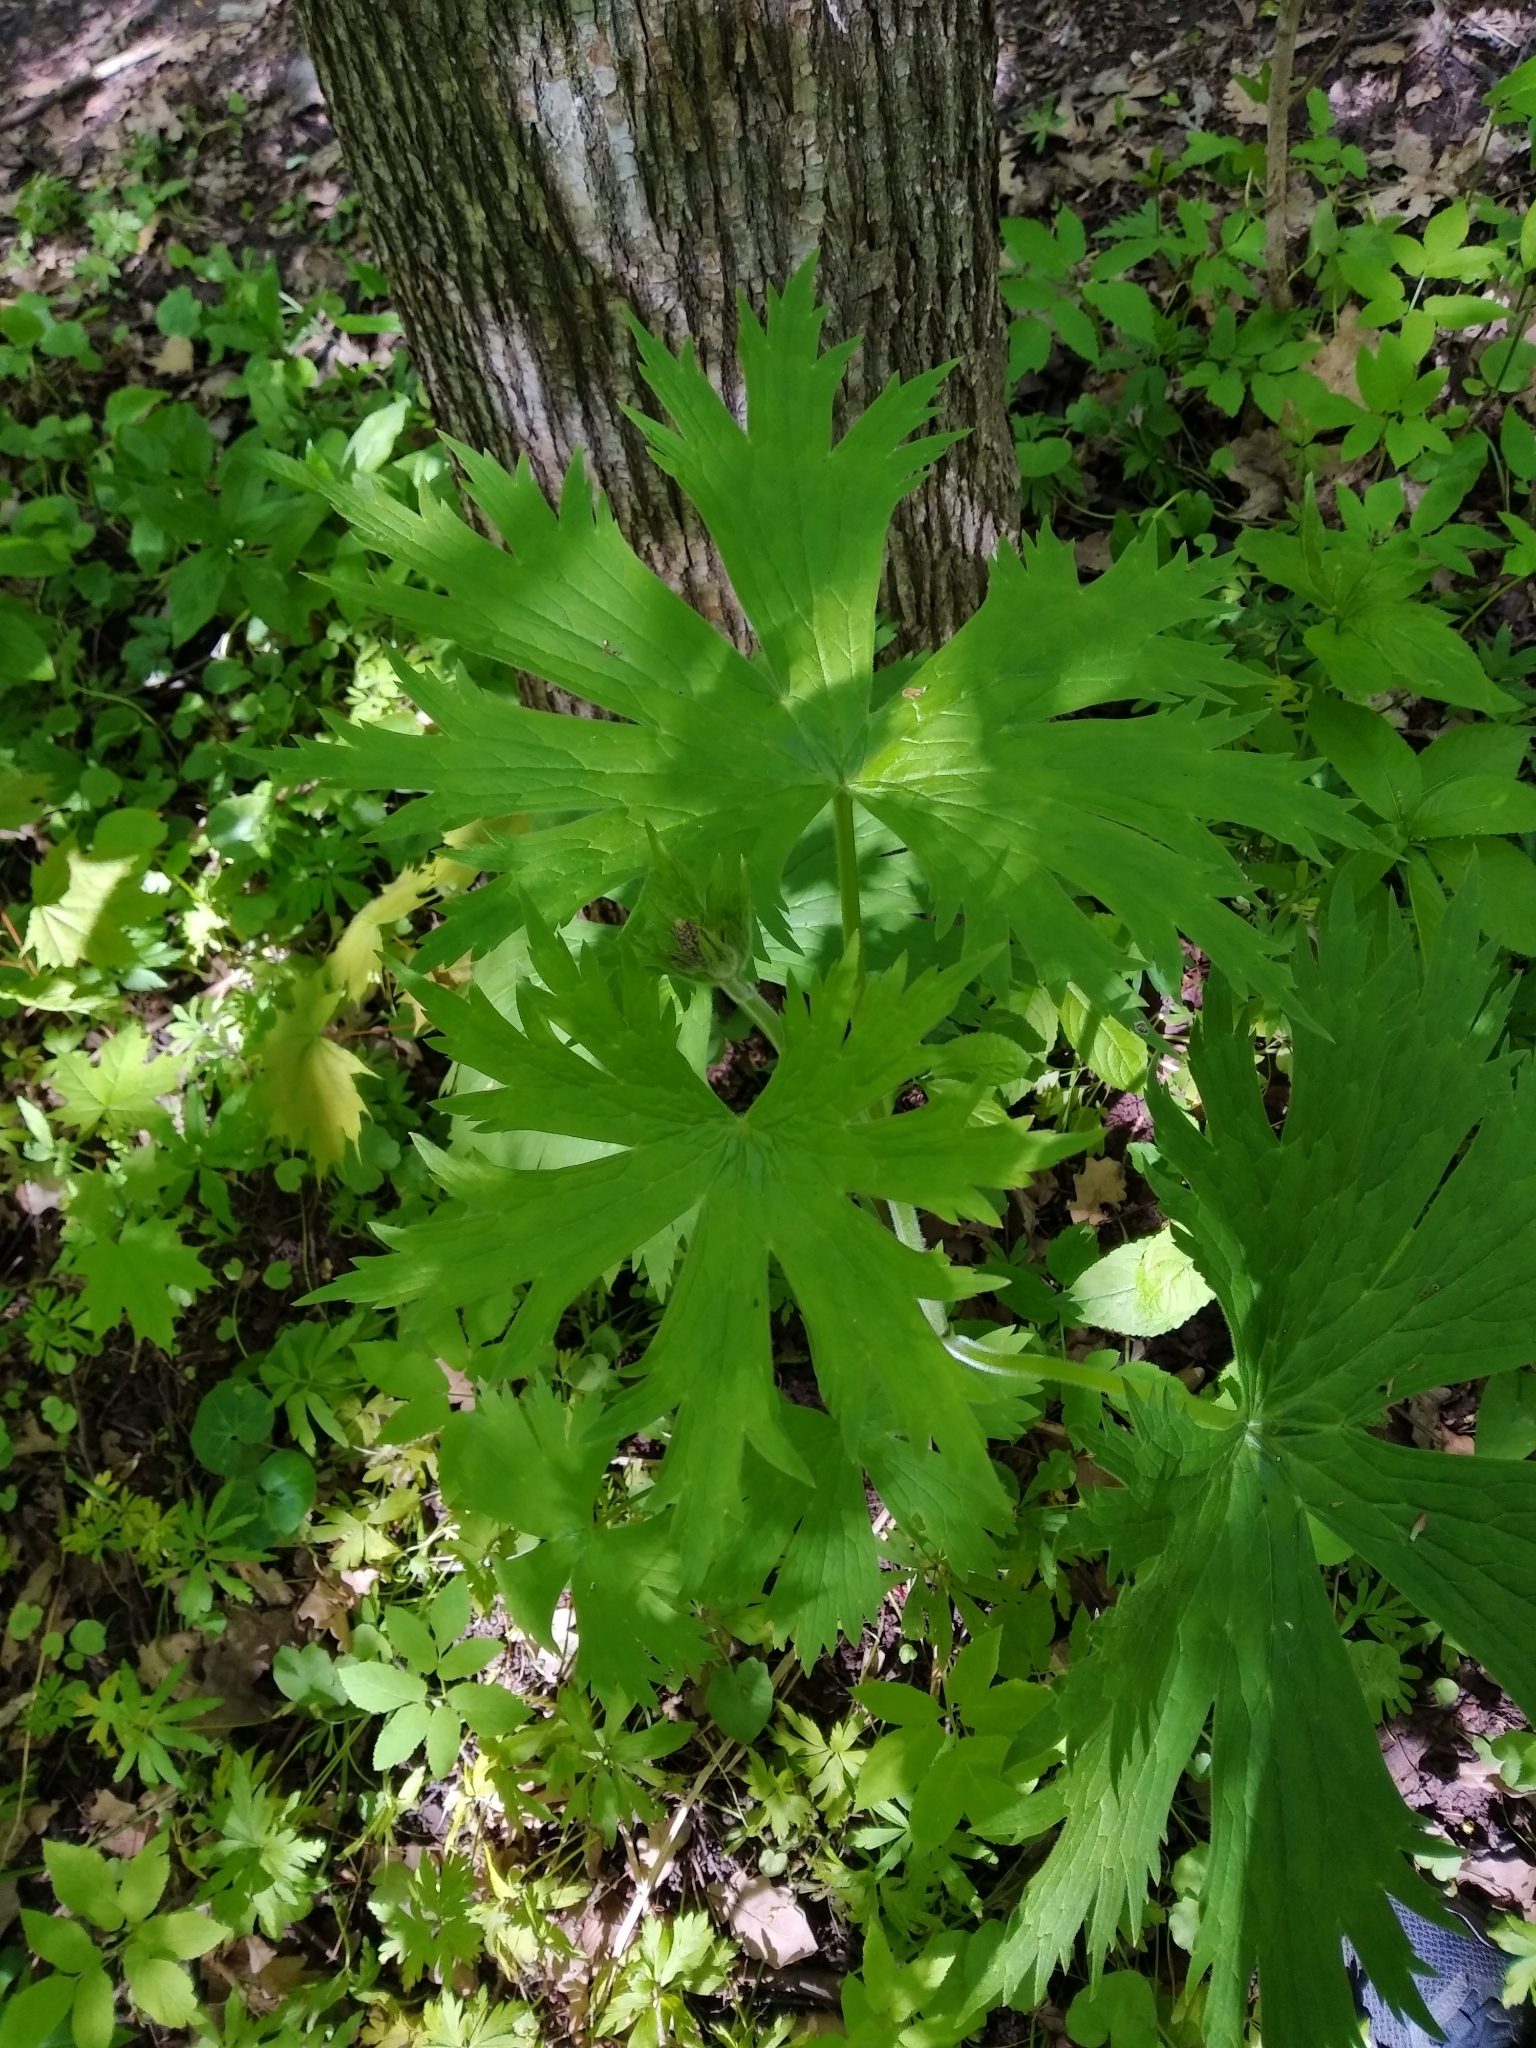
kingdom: Plantae
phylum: Tracheophyta
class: Magnoliopsida
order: Ranunculales
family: Ranunculaceae
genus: Aconitum
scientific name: Aconitum septentrionale
